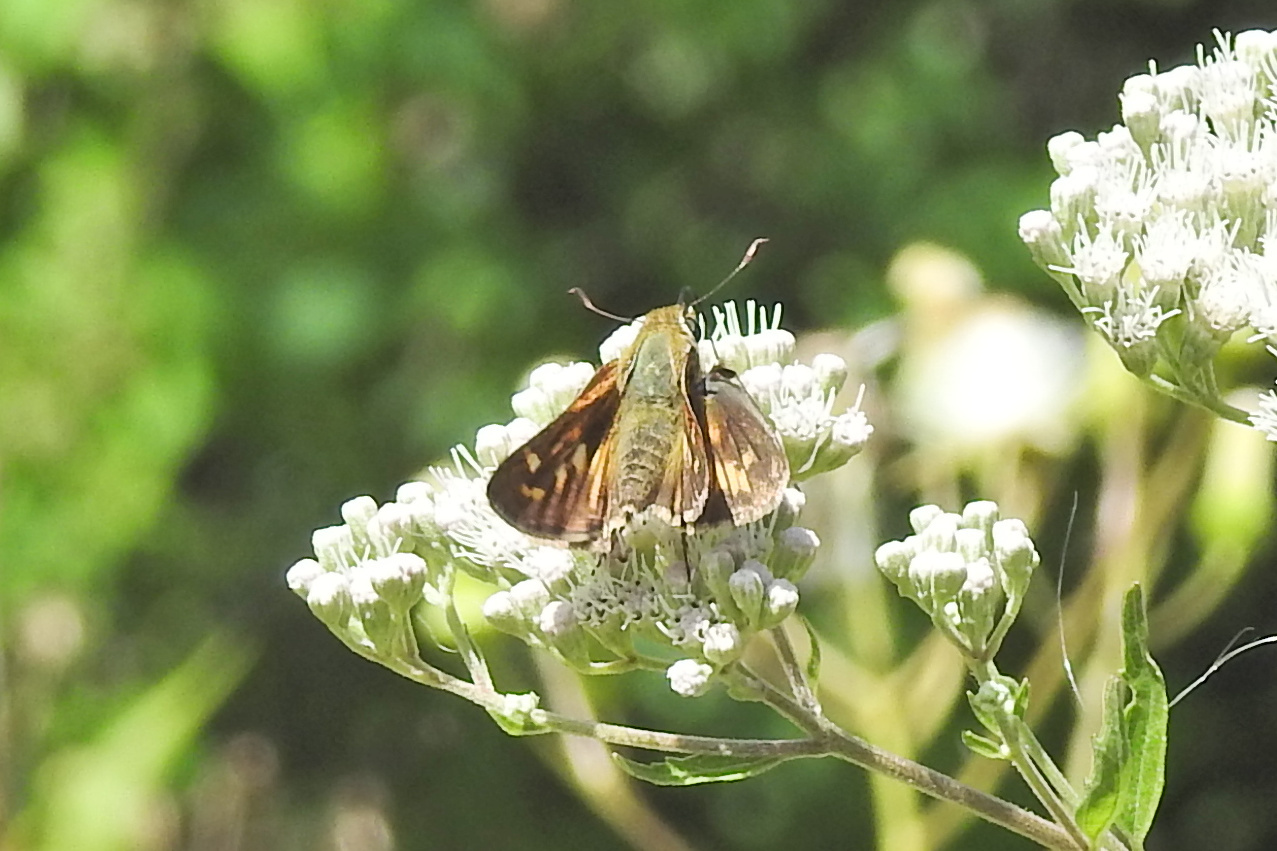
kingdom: Animalia
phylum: Arthropoda
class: Insecta
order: Lepidoptera
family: Hesperiidae
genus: Atalopedes
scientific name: Atalopedes
